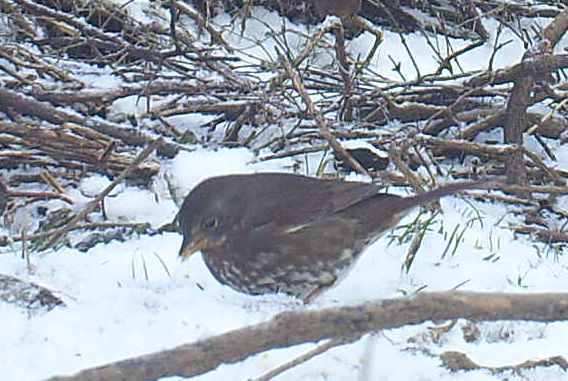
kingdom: Animalia
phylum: Chordata
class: Aves
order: Passeriformes
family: Passerellidae
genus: Passerella
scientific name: Passerella iliaca
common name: Fox sparrow
